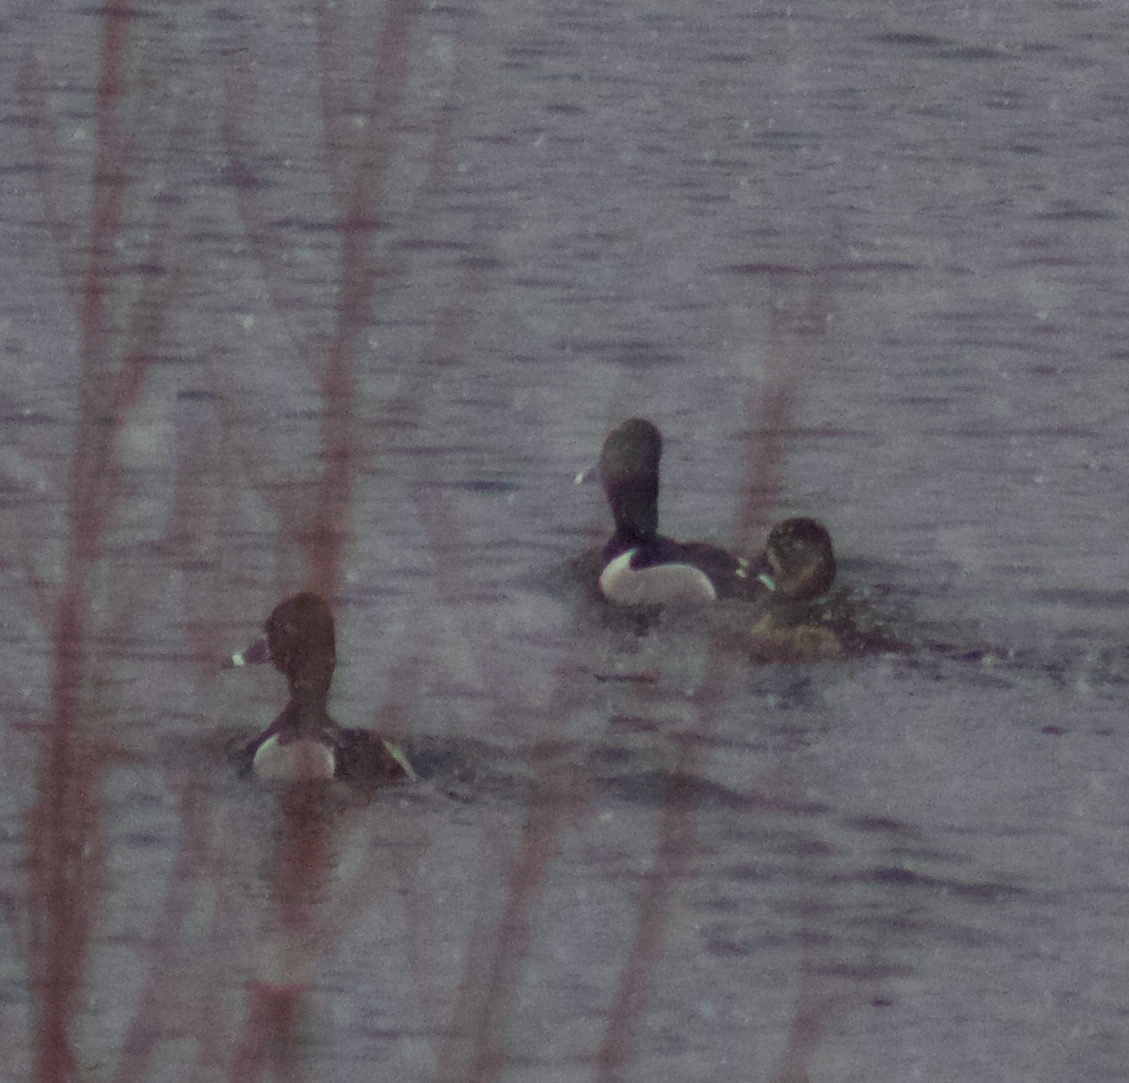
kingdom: Animalia
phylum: Chordata
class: Aves
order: Anseriformes
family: Anatidae
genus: Aythya
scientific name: Aythya collaris
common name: Ring-necked duck
